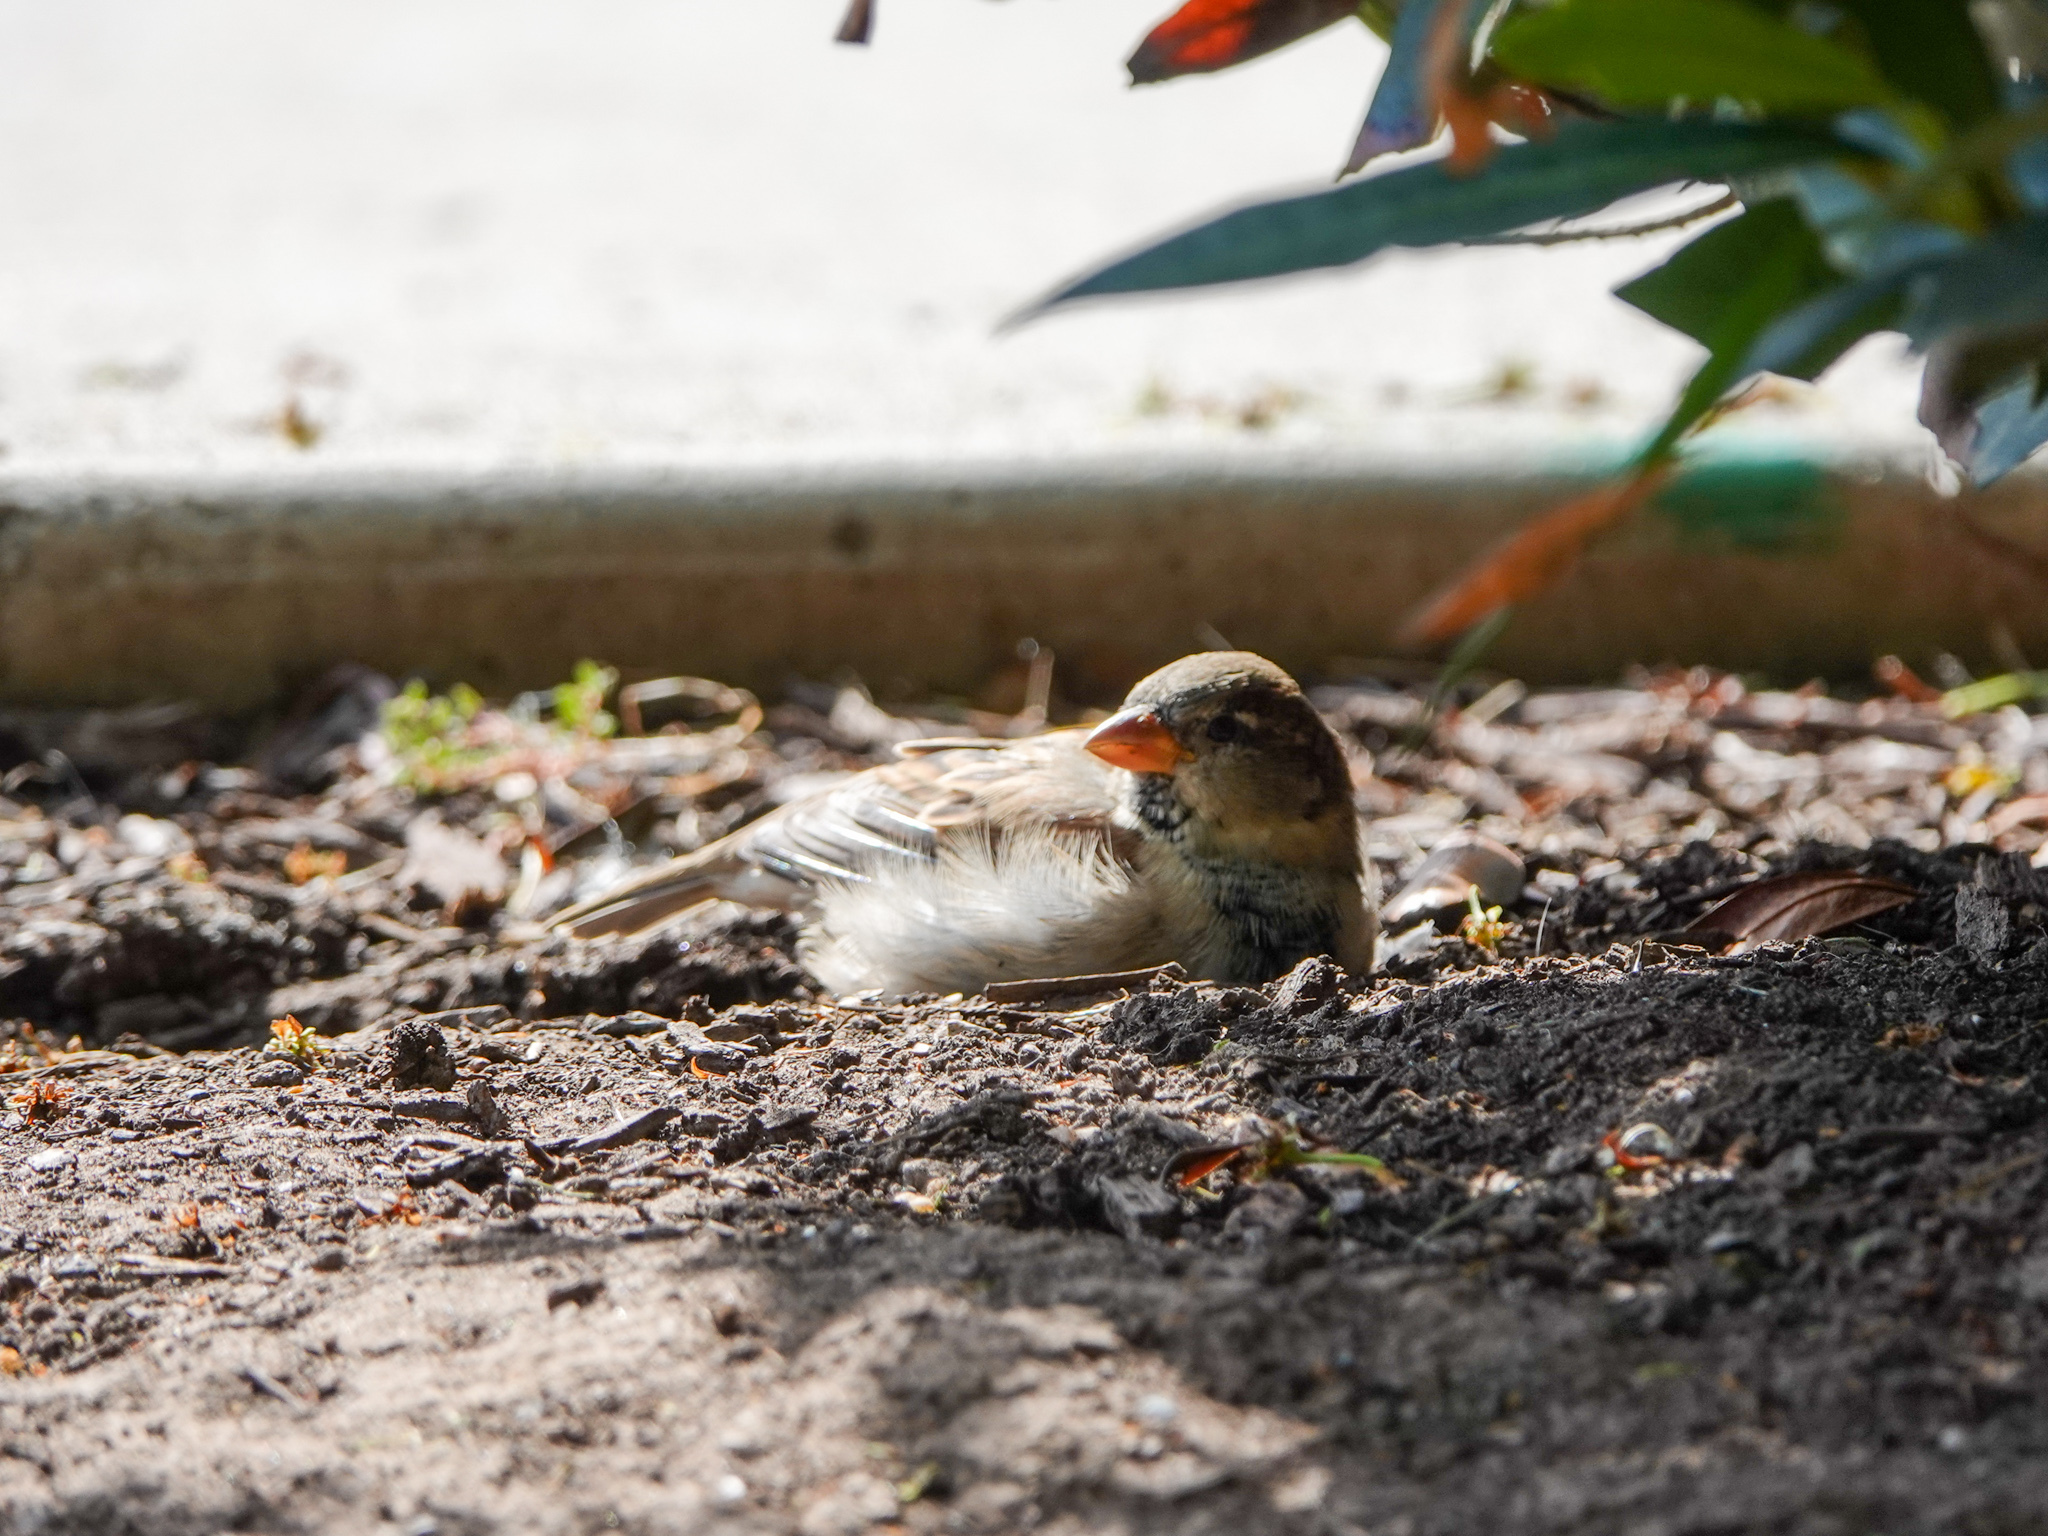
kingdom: Animalia
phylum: Chordata
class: Aves
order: Passeriformes
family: Passeridae
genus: Passer
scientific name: Passer domesticus
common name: House sparrow
